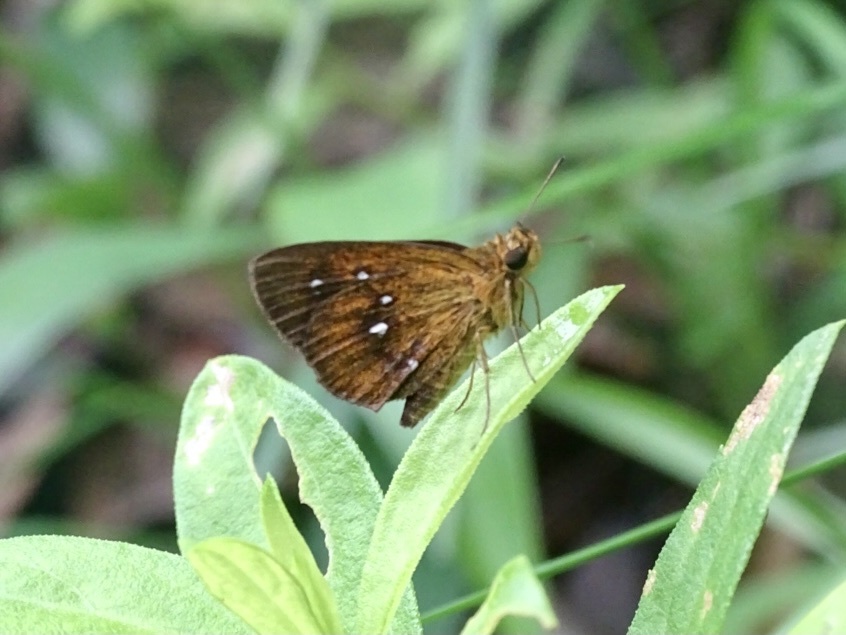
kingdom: Animalia
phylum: Arthropoda
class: Insecta
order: Lepidoptera
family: Hesperiidae
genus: Iambrix
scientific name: Iambrix salsala
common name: Chestnut bob
